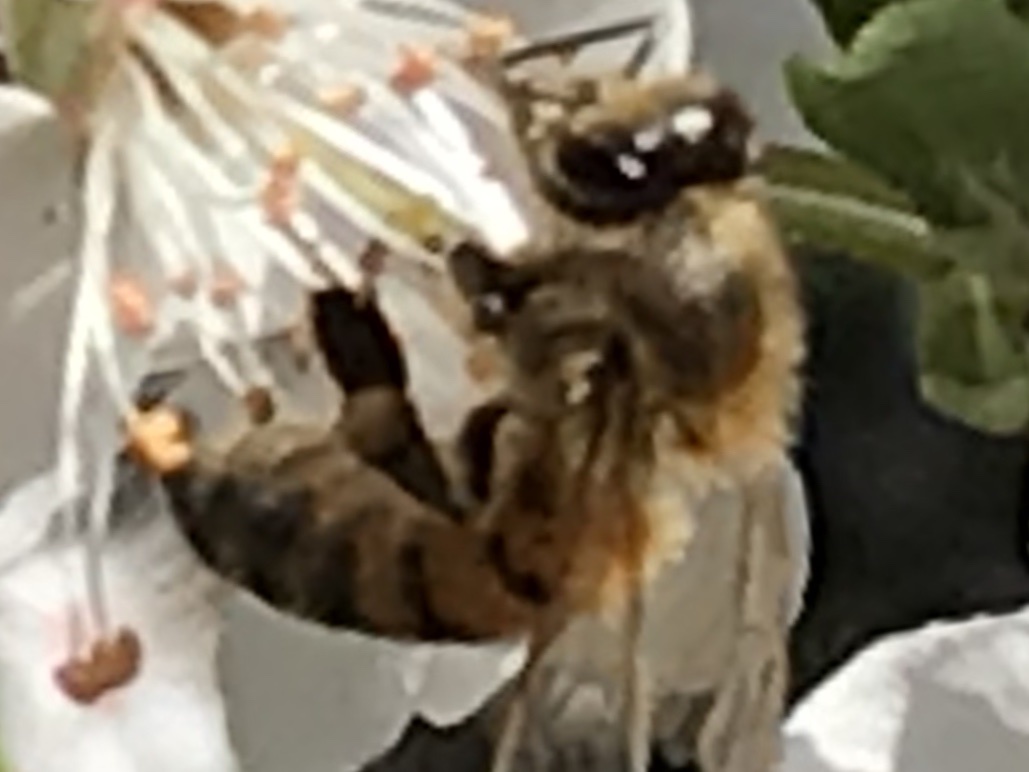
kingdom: Animalia
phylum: Arthropoda
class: Insecta
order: Hymenoptera
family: Apidae
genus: Apis
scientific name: Apis mellifera
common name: Honey bee
